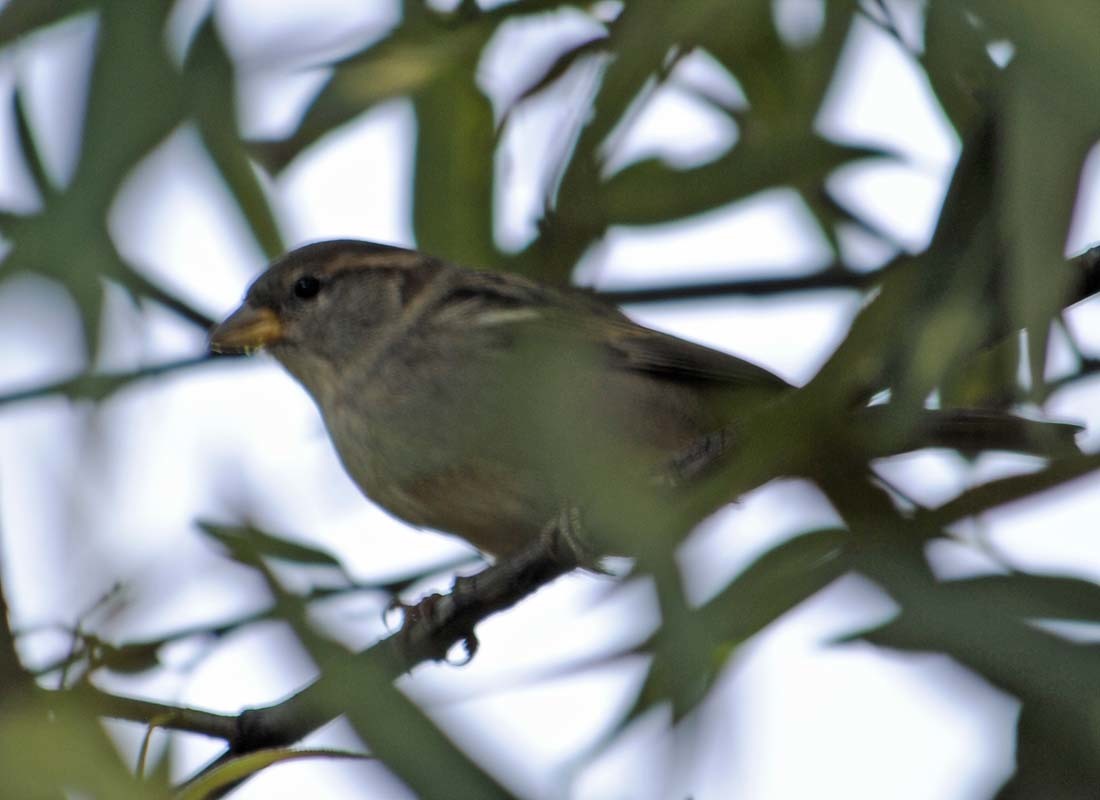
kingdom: Animalia
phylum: Chordata
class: Aves
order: Passeriformes
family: Passeridae
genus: Passer
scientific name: Passer domesticus
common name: House sparrow
